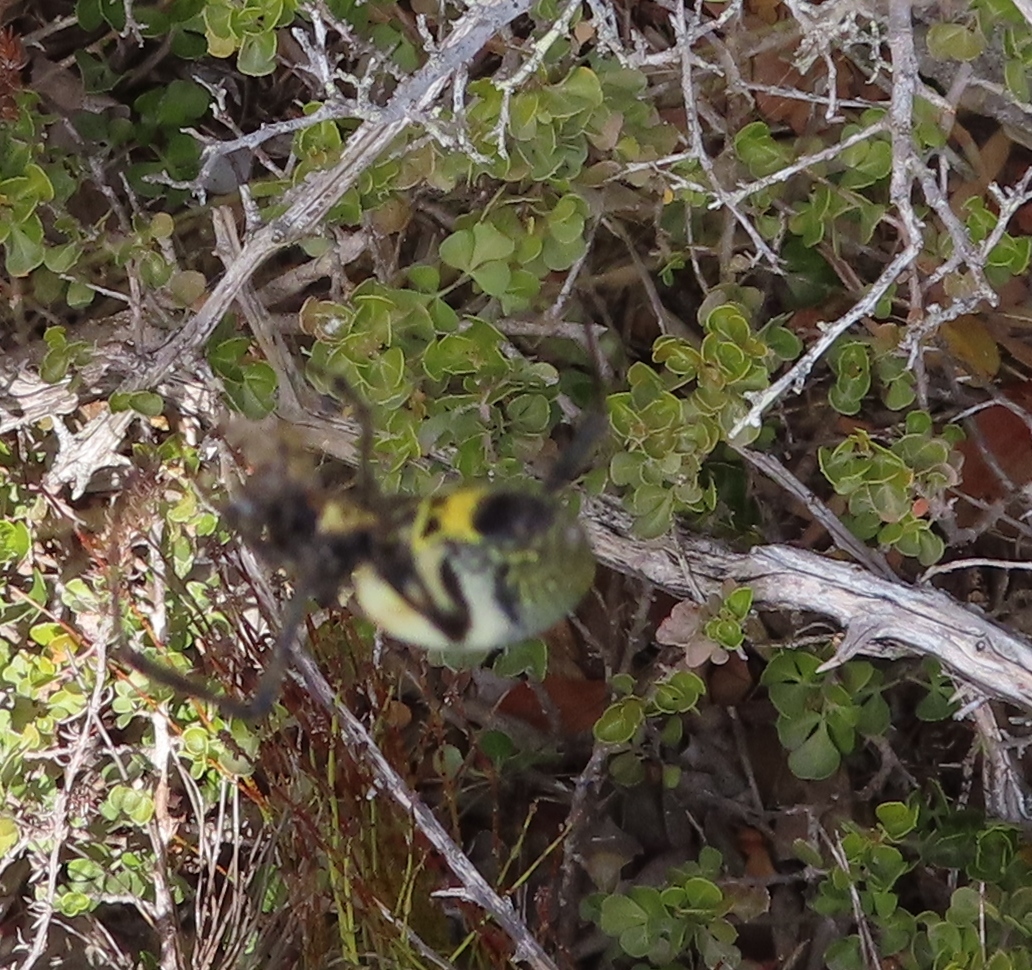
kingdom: Animalia
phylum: Arthropoda
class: Arachnida
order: Araneae
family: Araneidae
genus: Trichonephila
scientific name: Trichonephila fenestrata
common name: Hairy golden orb weaver
